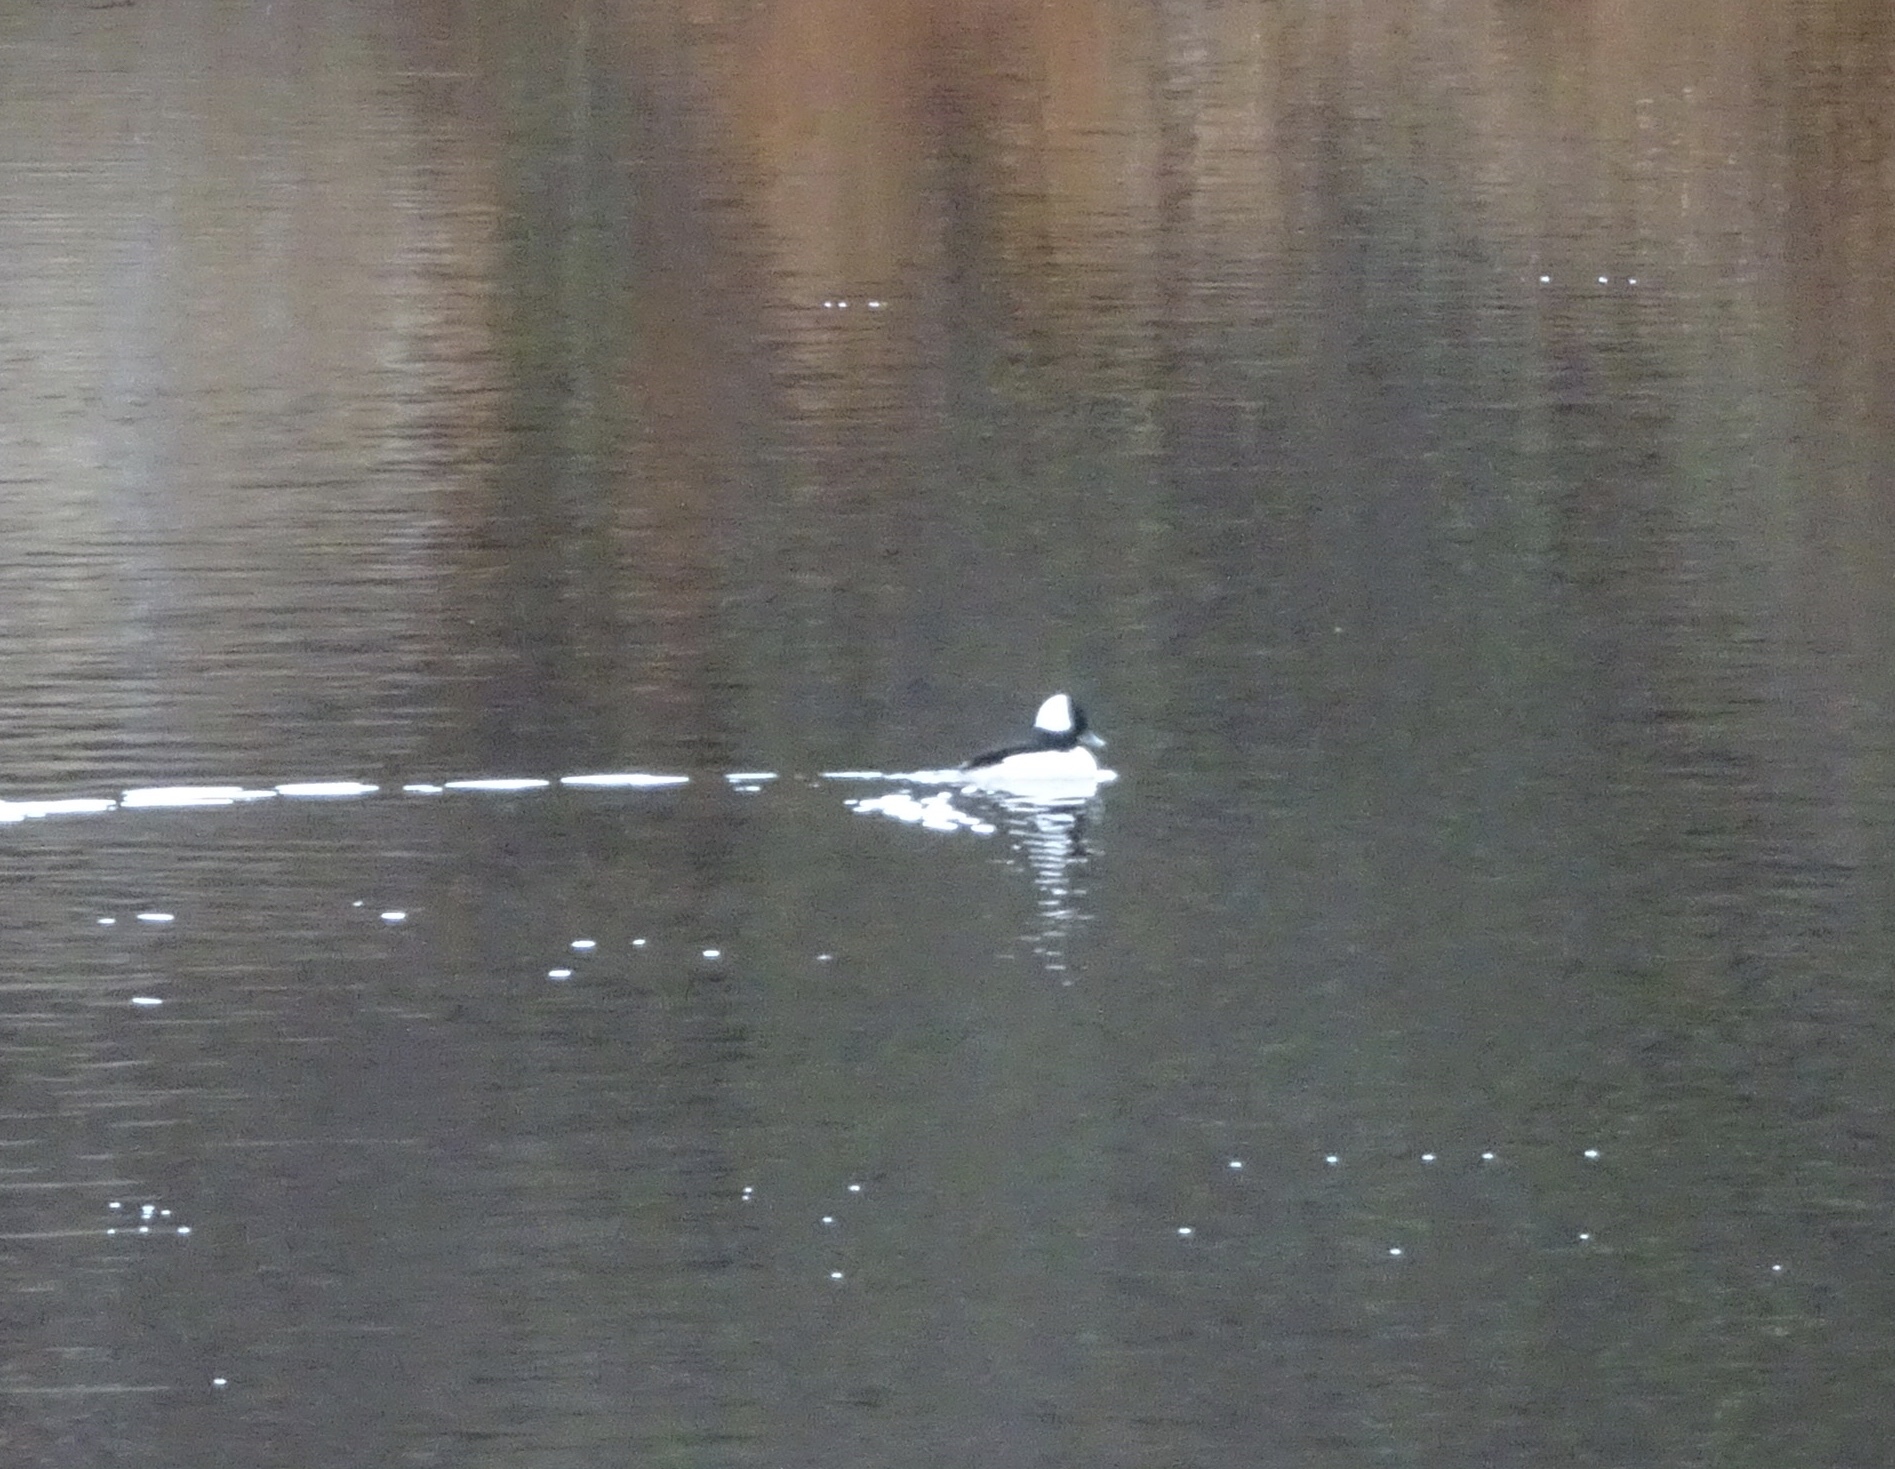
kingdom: Animalia
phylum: Chordata
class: Aves
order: Anseriformes
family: Anatidae
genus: Bucephala
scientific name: Bucephala albeola
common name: Bufflehead
